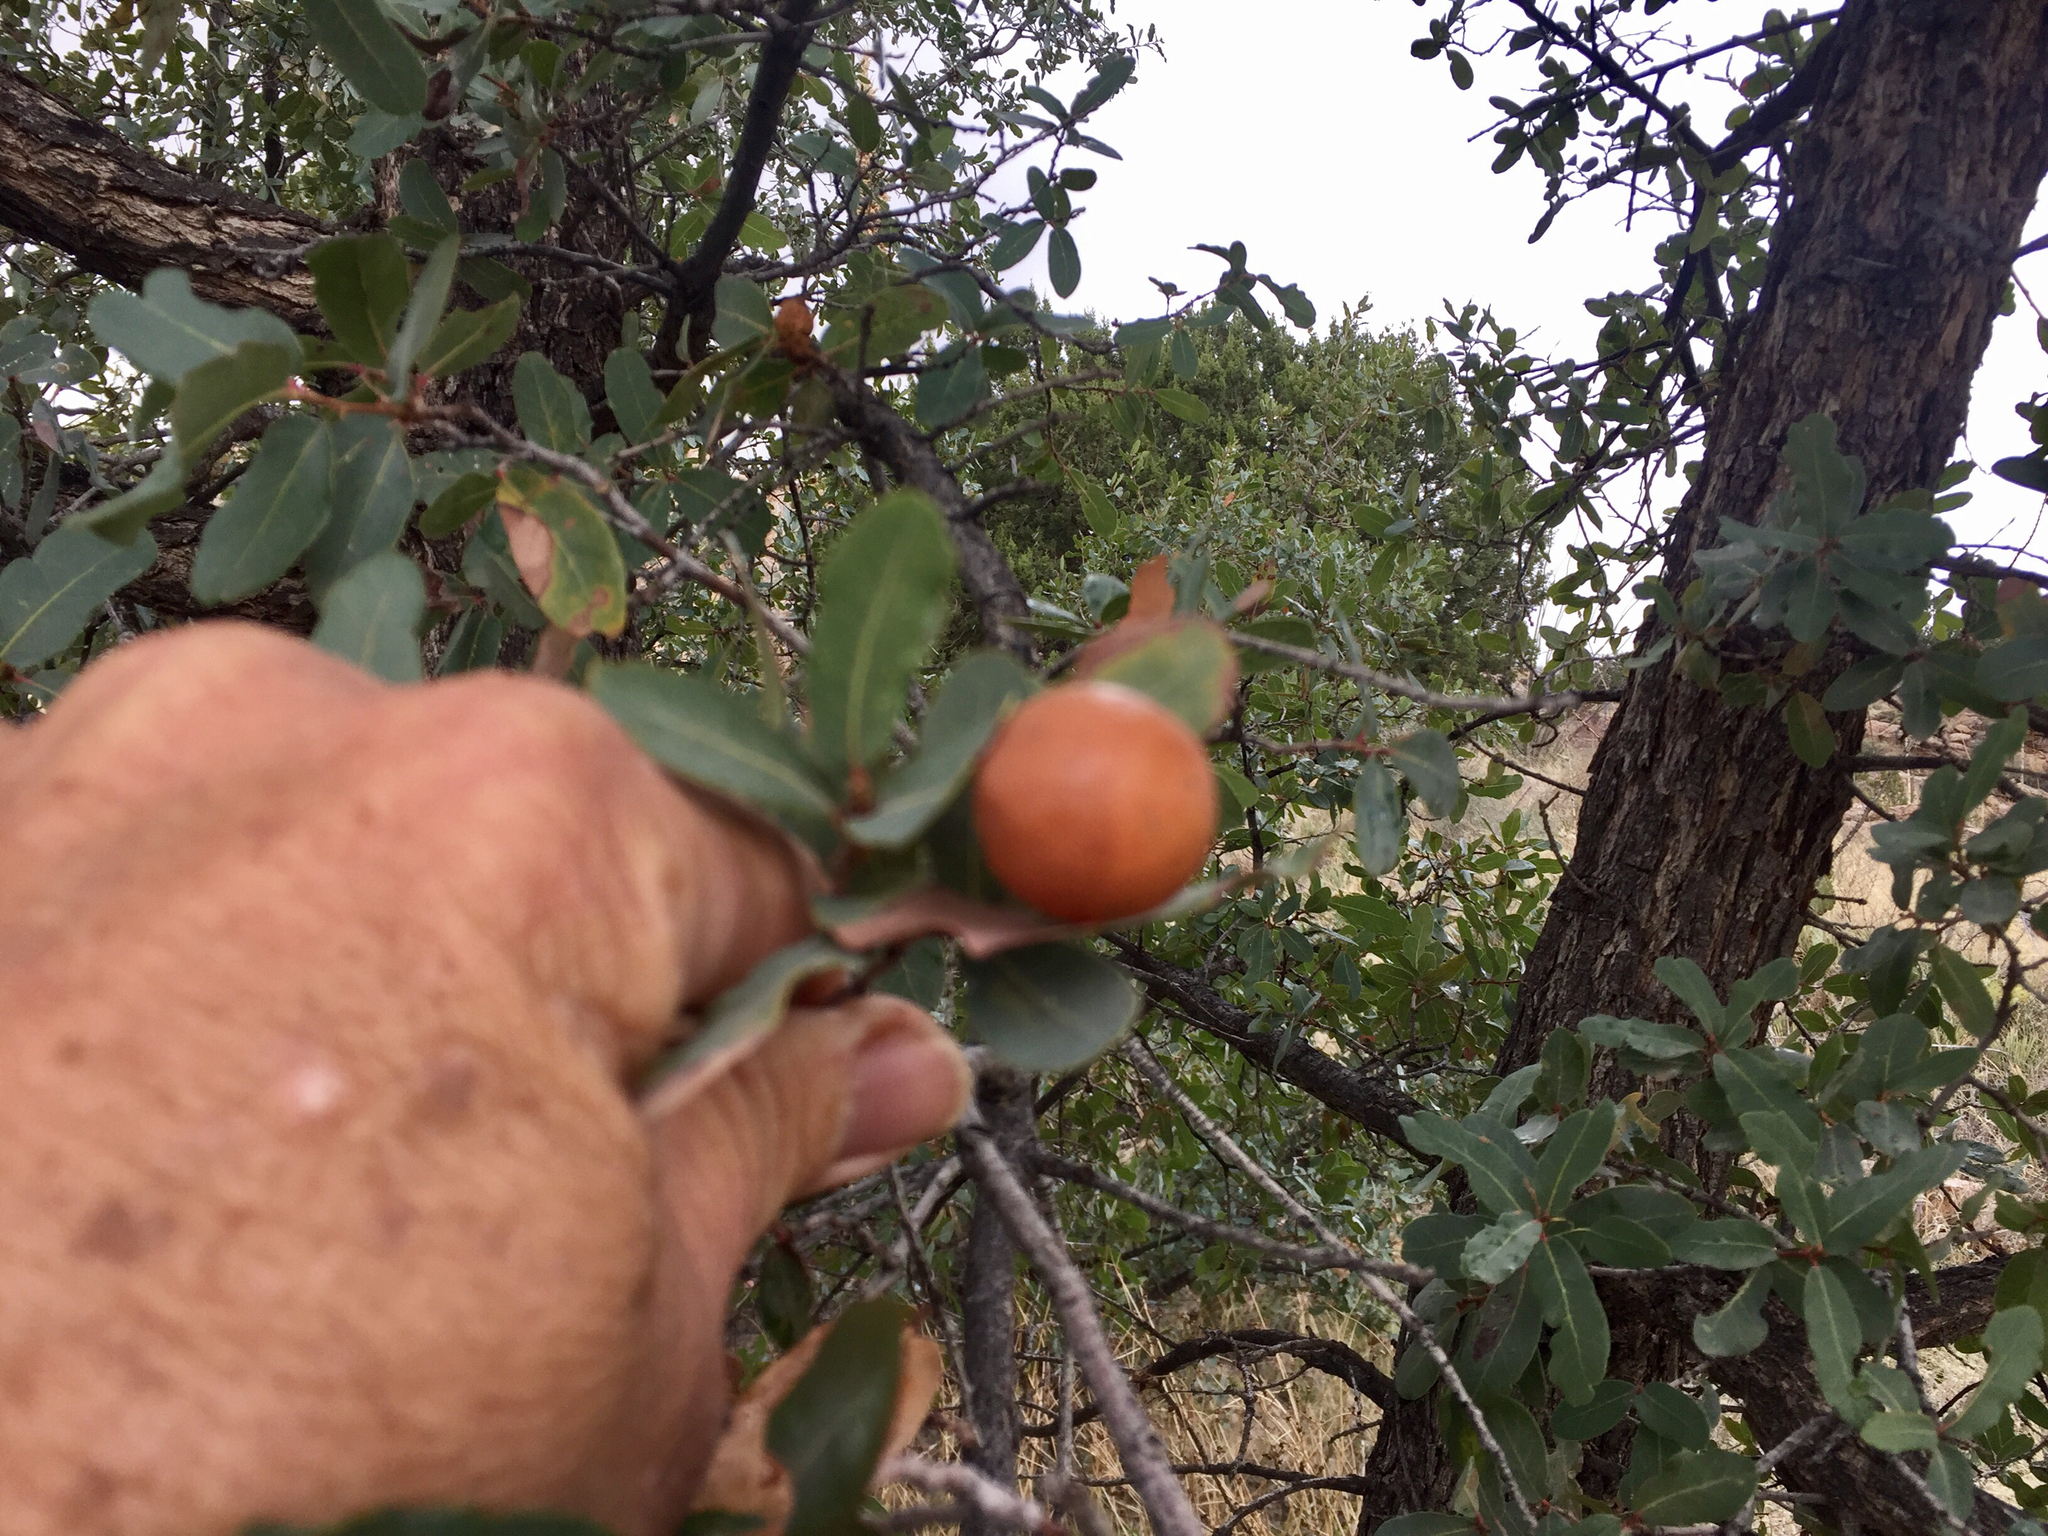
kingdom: Plantae
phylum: Tracheophyta
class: Magnoliopsida
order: Fagales
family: Fagaceae
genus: Quercus
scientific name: Quercus oblongifolia
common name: Mexican blue oak
